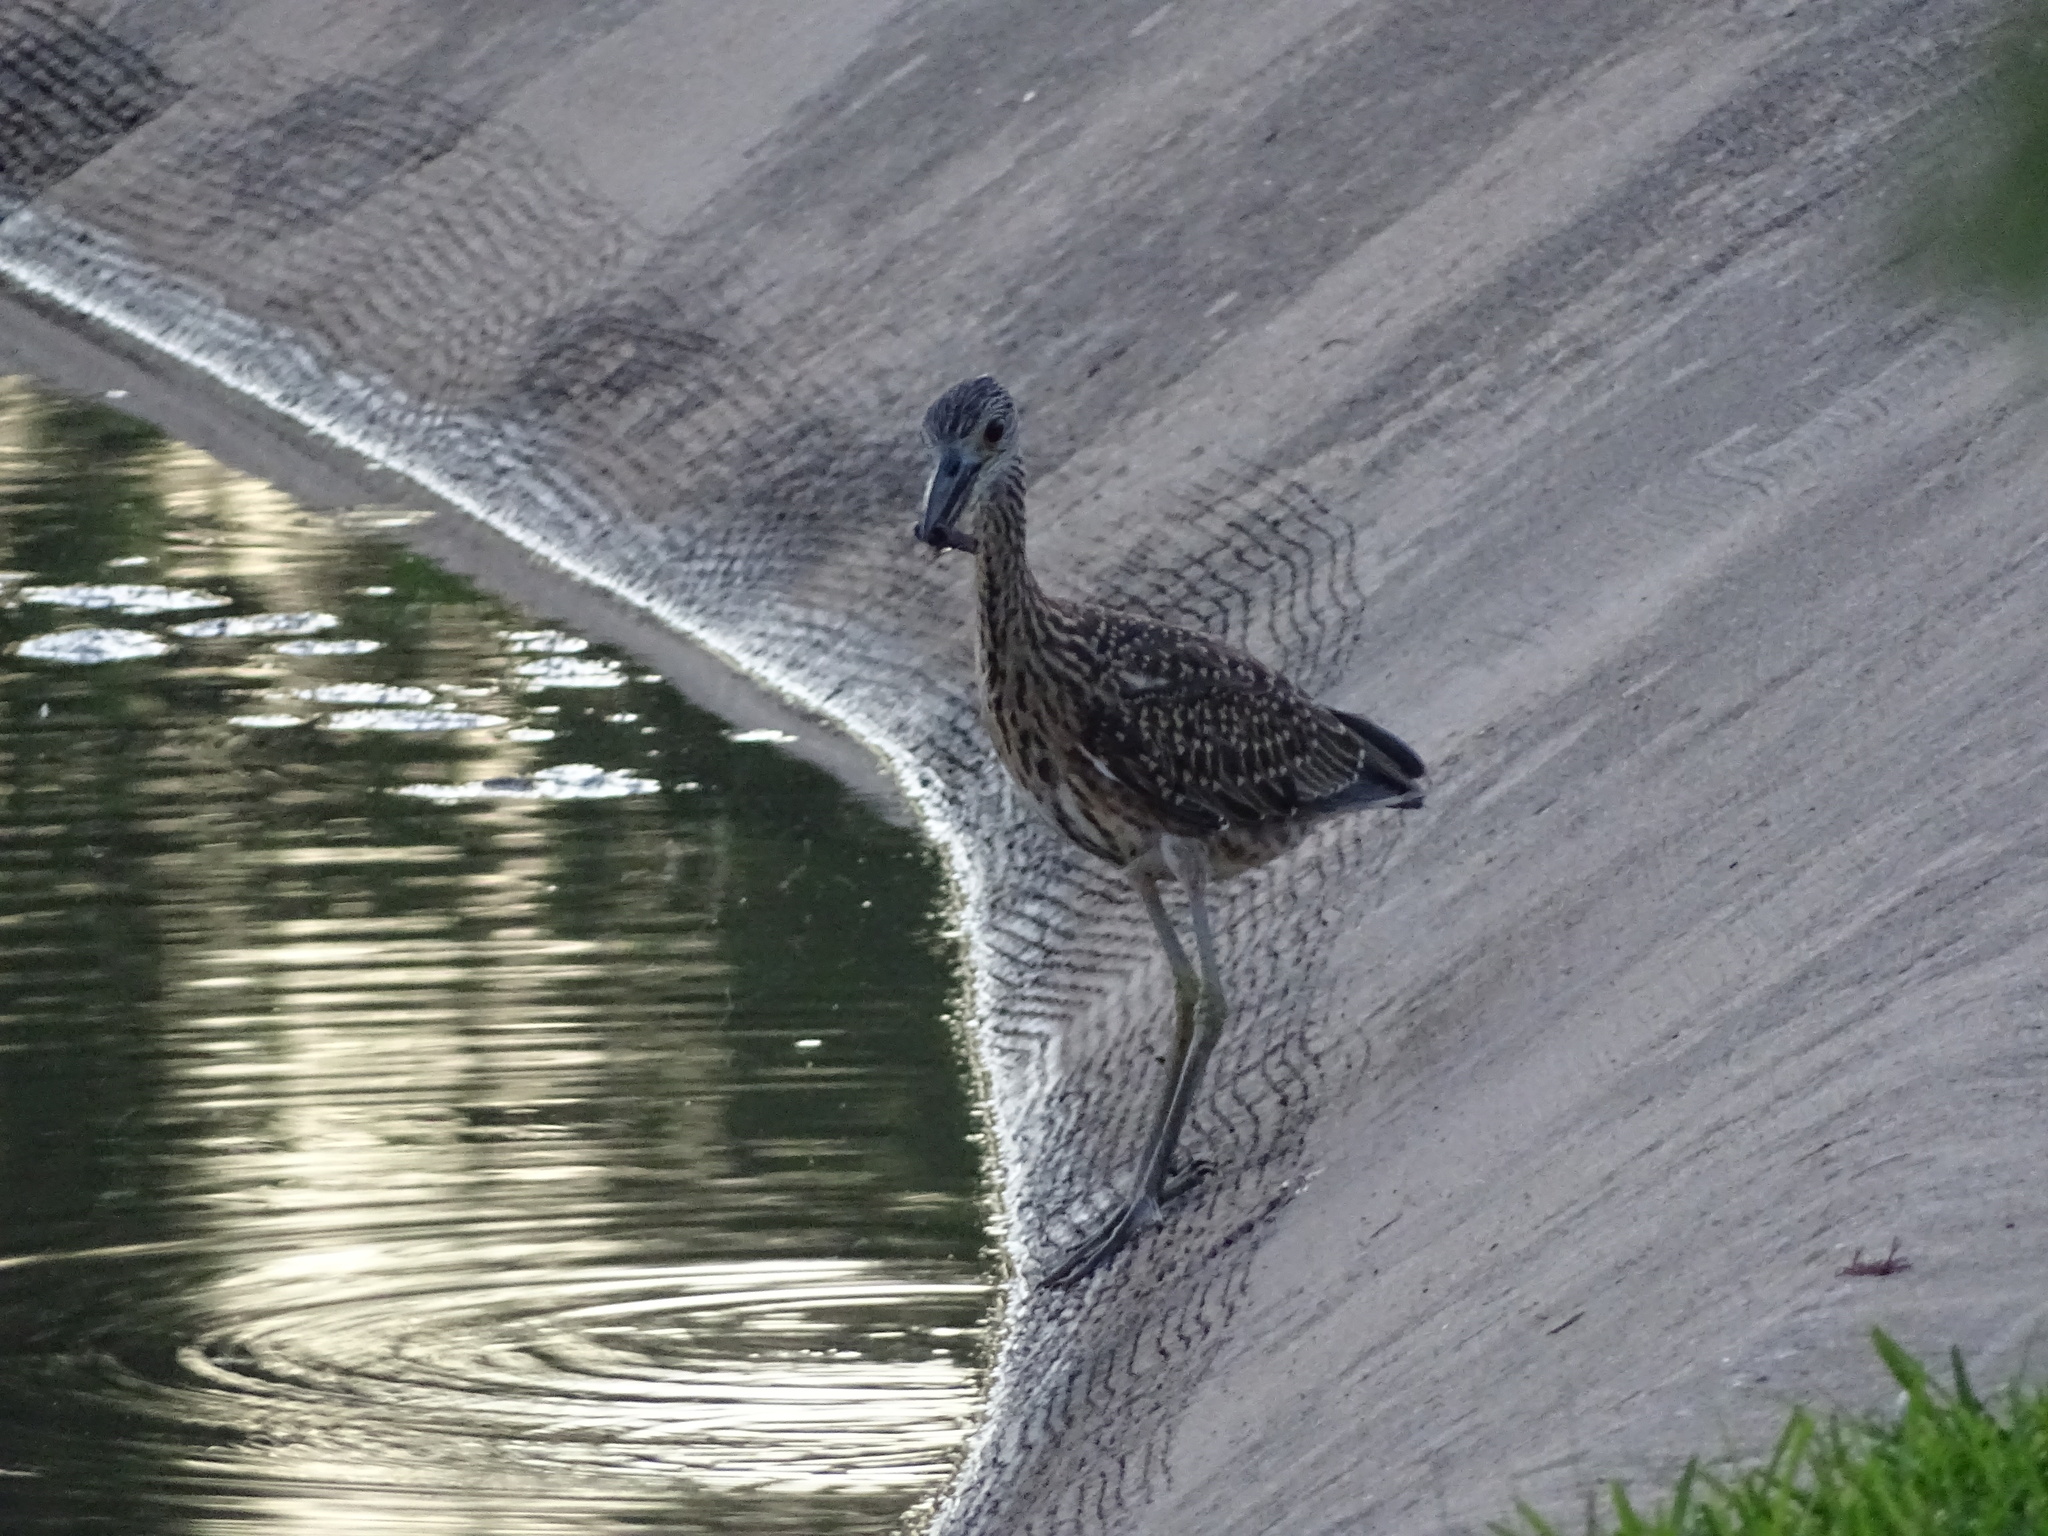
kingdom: Animalia
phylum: Chordata
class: Aves
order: Pelecaniformes
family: Ardeidae
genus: Nyctanassa
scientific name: Nyctanassa violacea
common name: Yellow-crowned night heron
